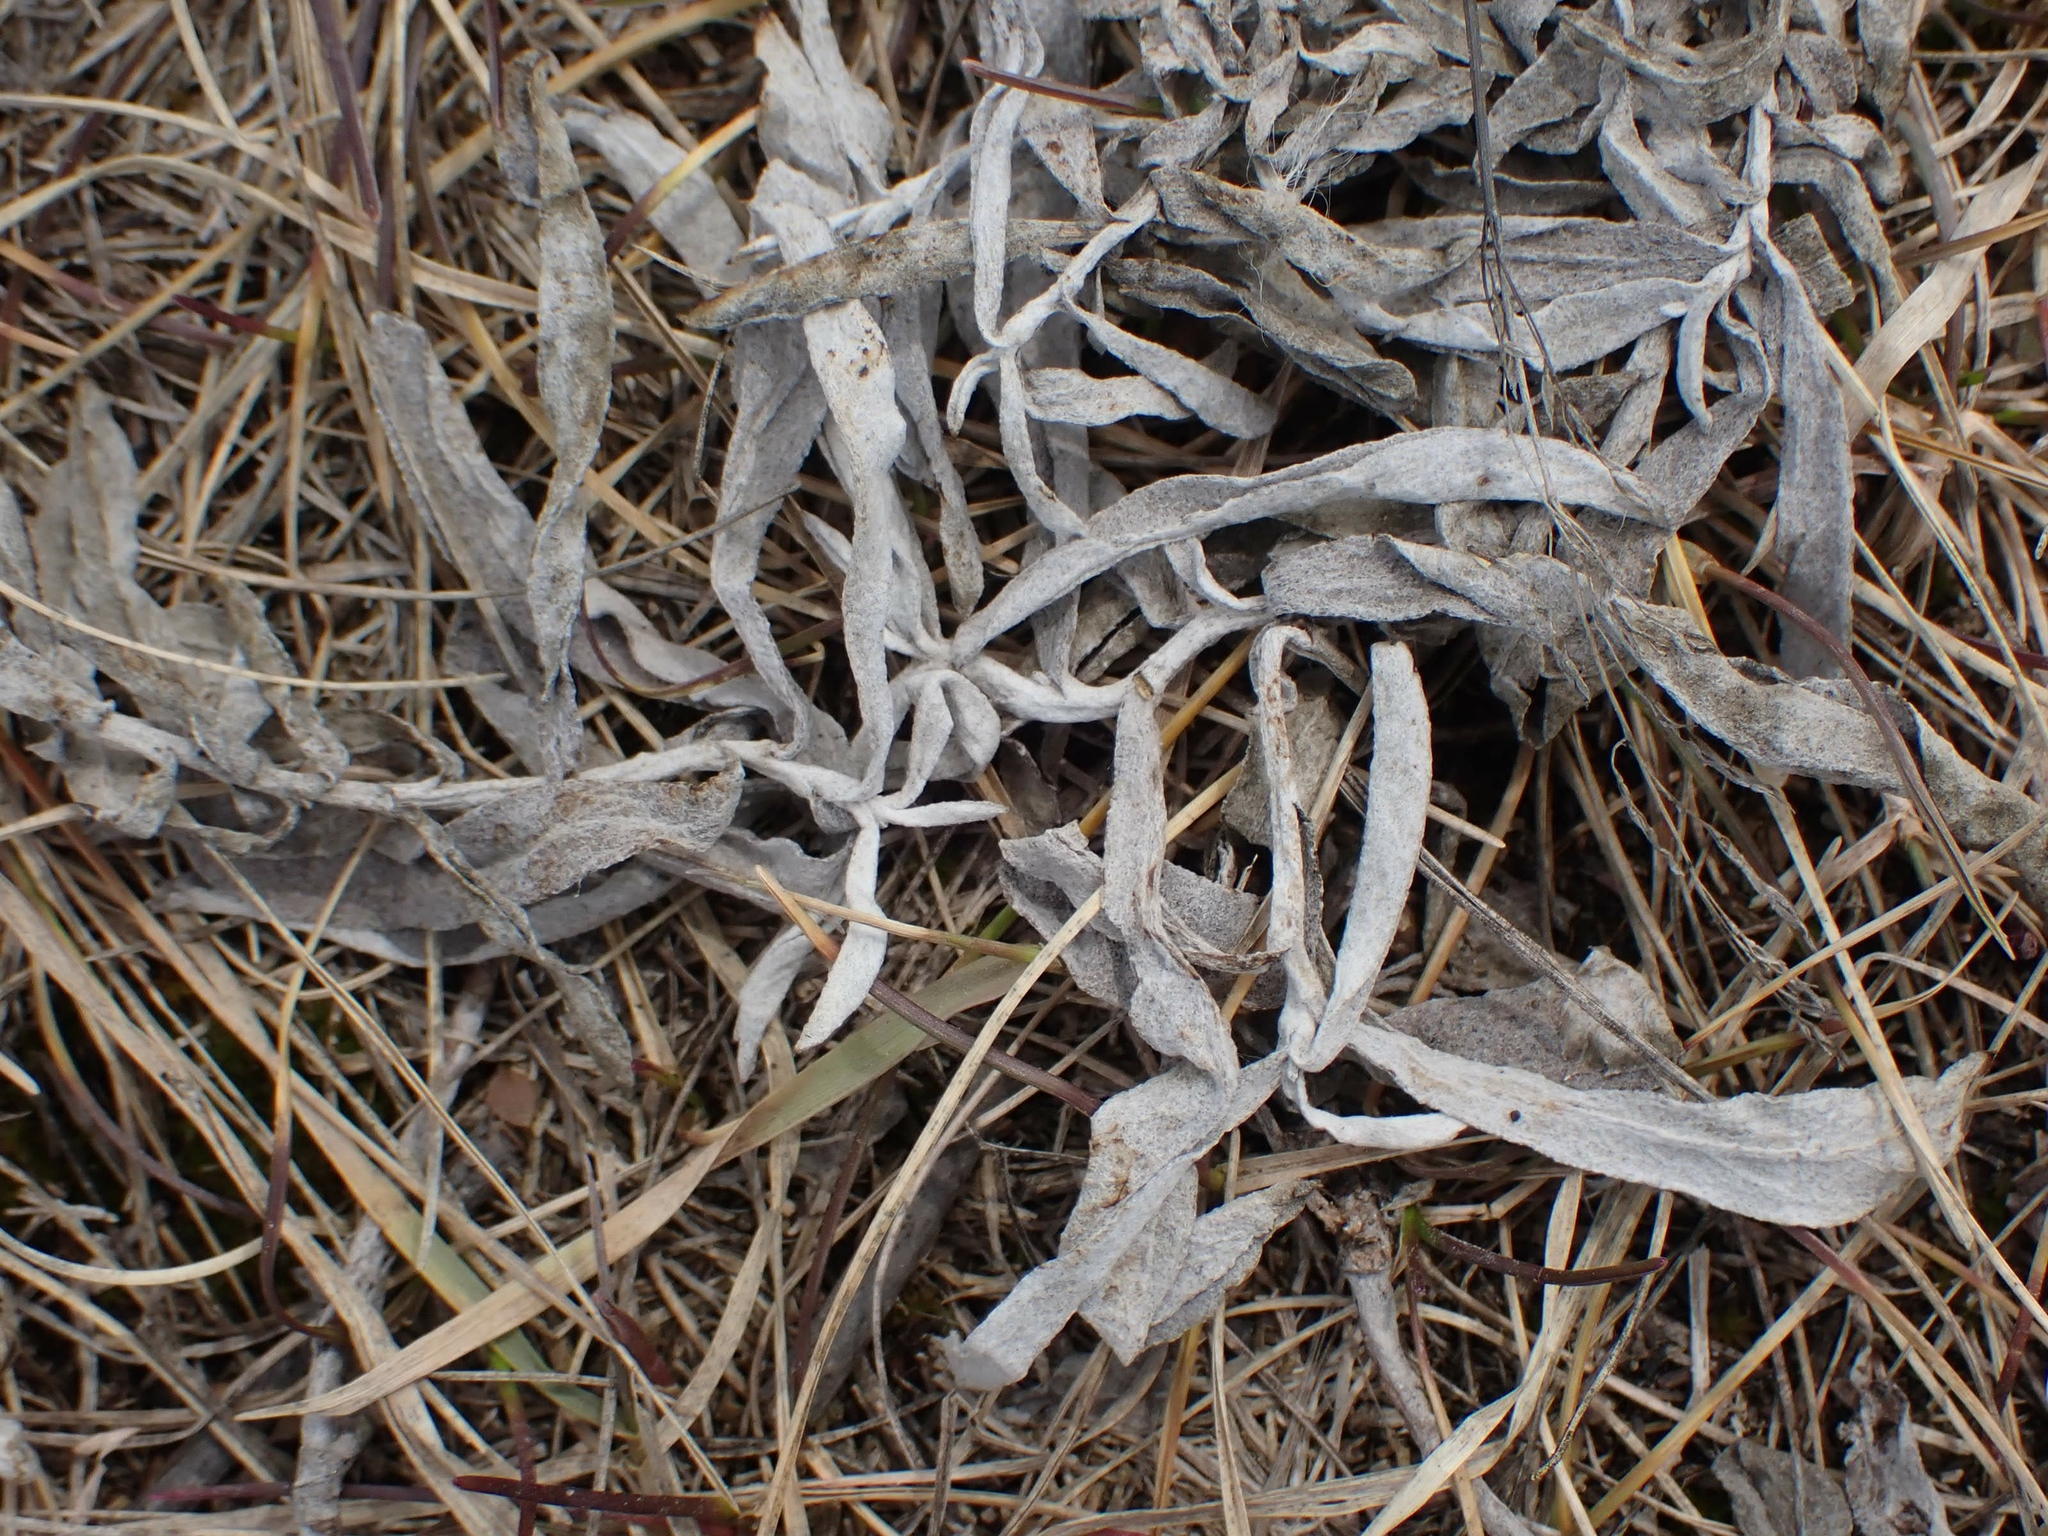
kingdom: Plantae
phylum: Tracheophyta
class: Magnoliopsida
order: Asterales
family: Asteraceae
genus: Artemisia
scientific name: Artemisia ludoviciana
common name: Western mugwort
